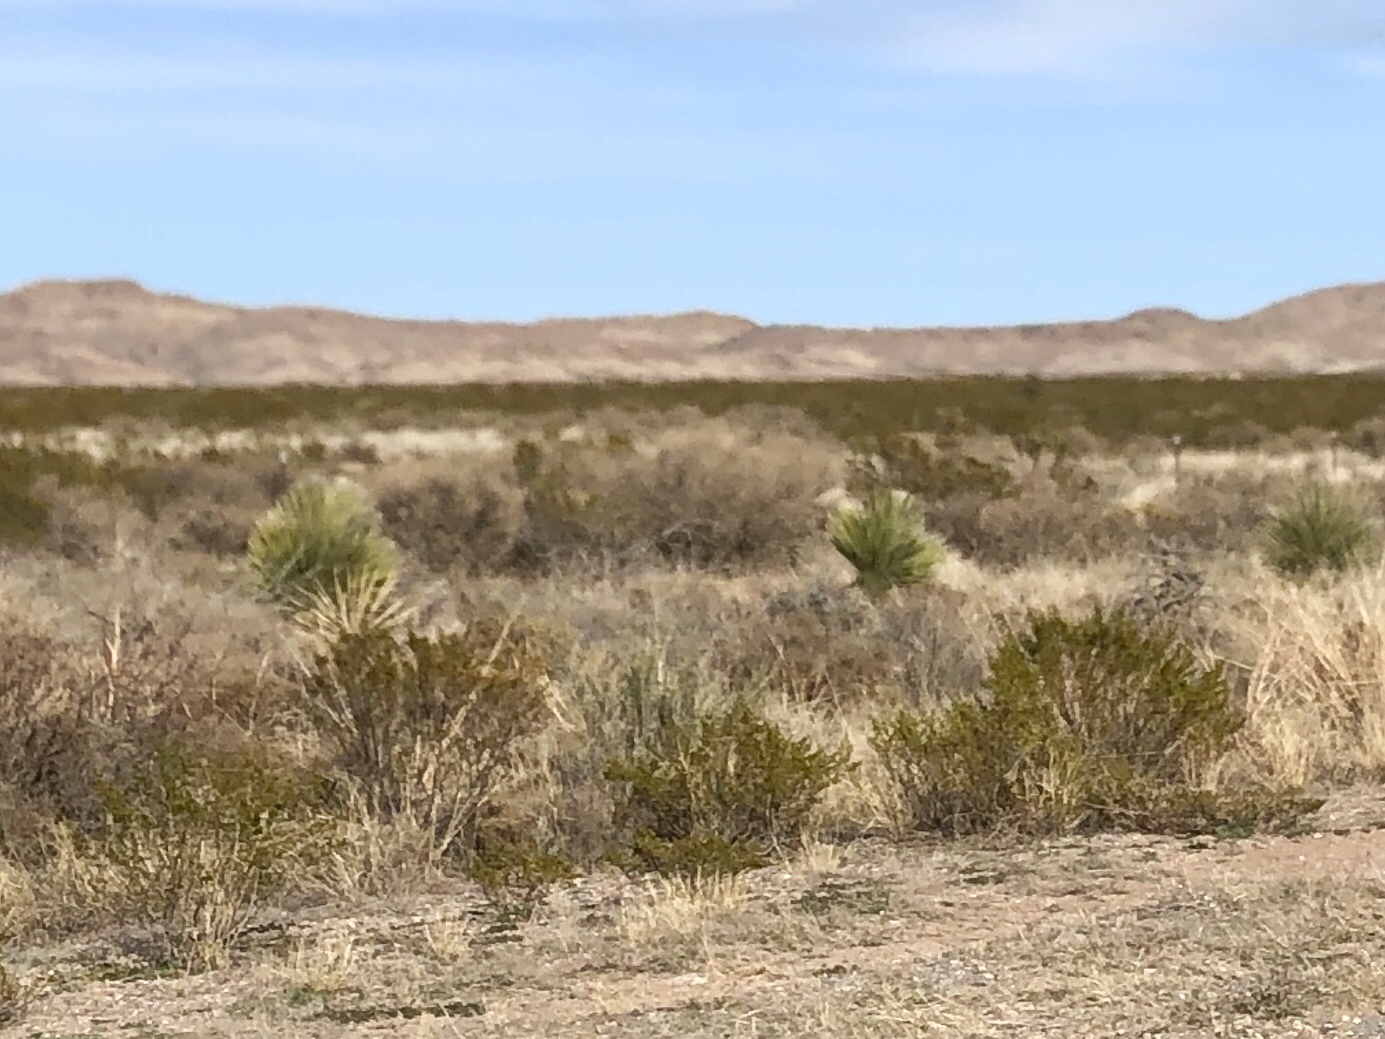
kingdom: Plantae
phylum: Tracheophyta
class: Magnoliopsida
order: Zygophyllales
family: Zygophyllaceae
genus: Larrea
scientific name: Larrea tridentata
